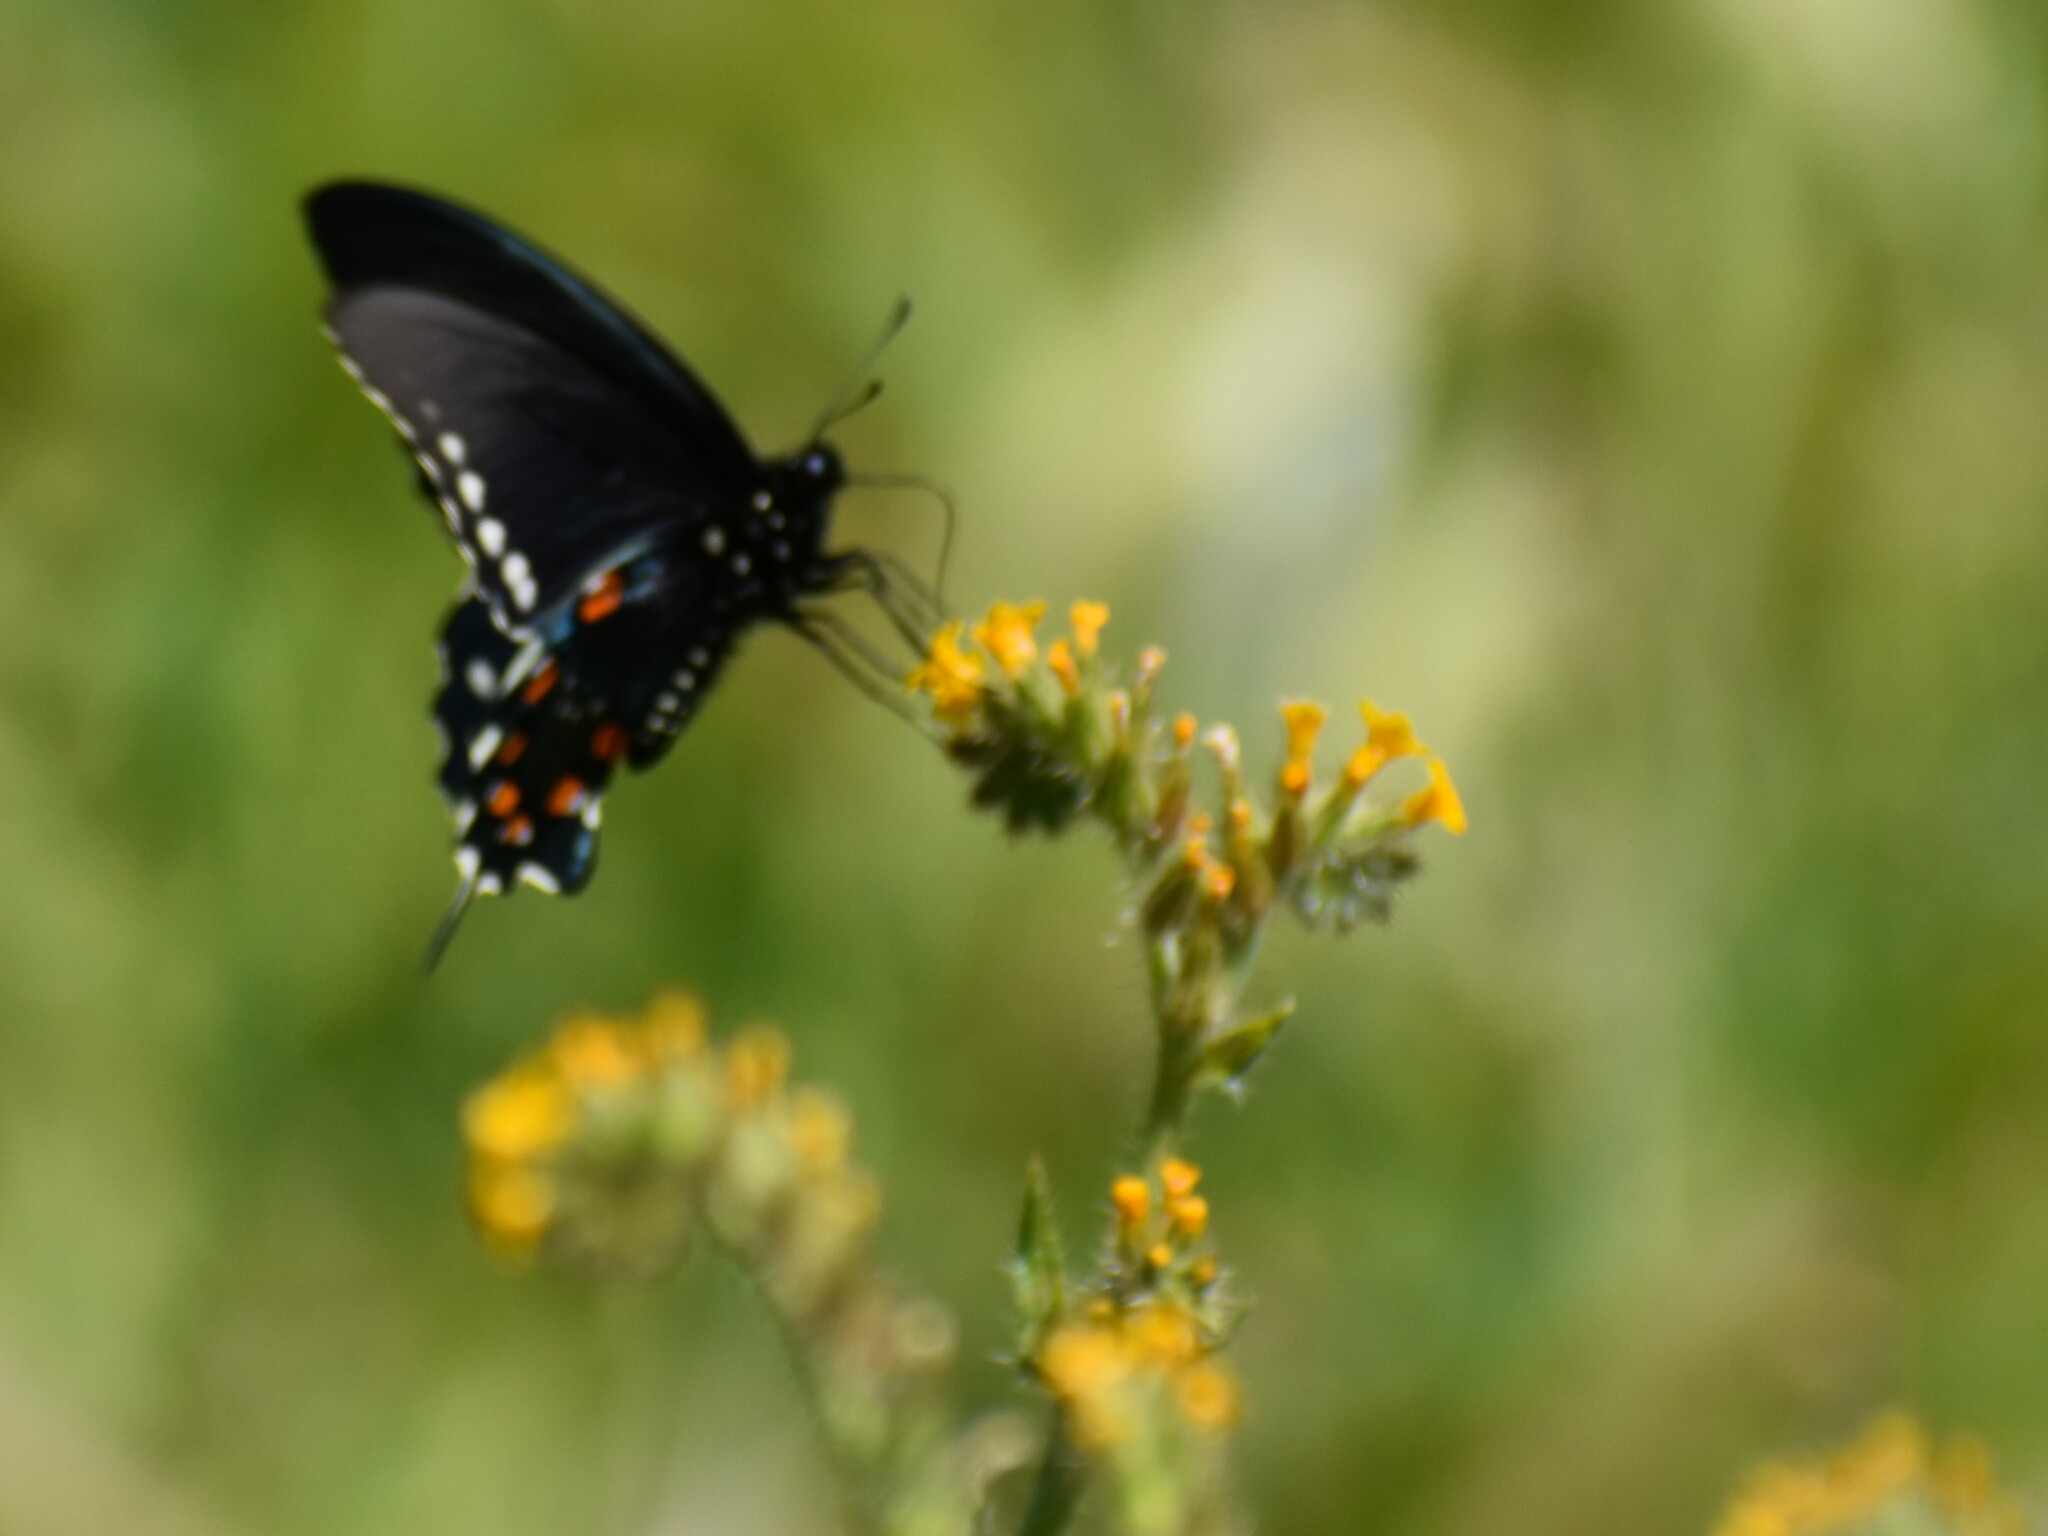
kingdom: Animalia
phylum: Arthropoda
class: Insecta
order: Lepidoptera
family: Papilionidae
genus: Battus
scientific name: Battus philenor
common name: Pipevine swallowtail
